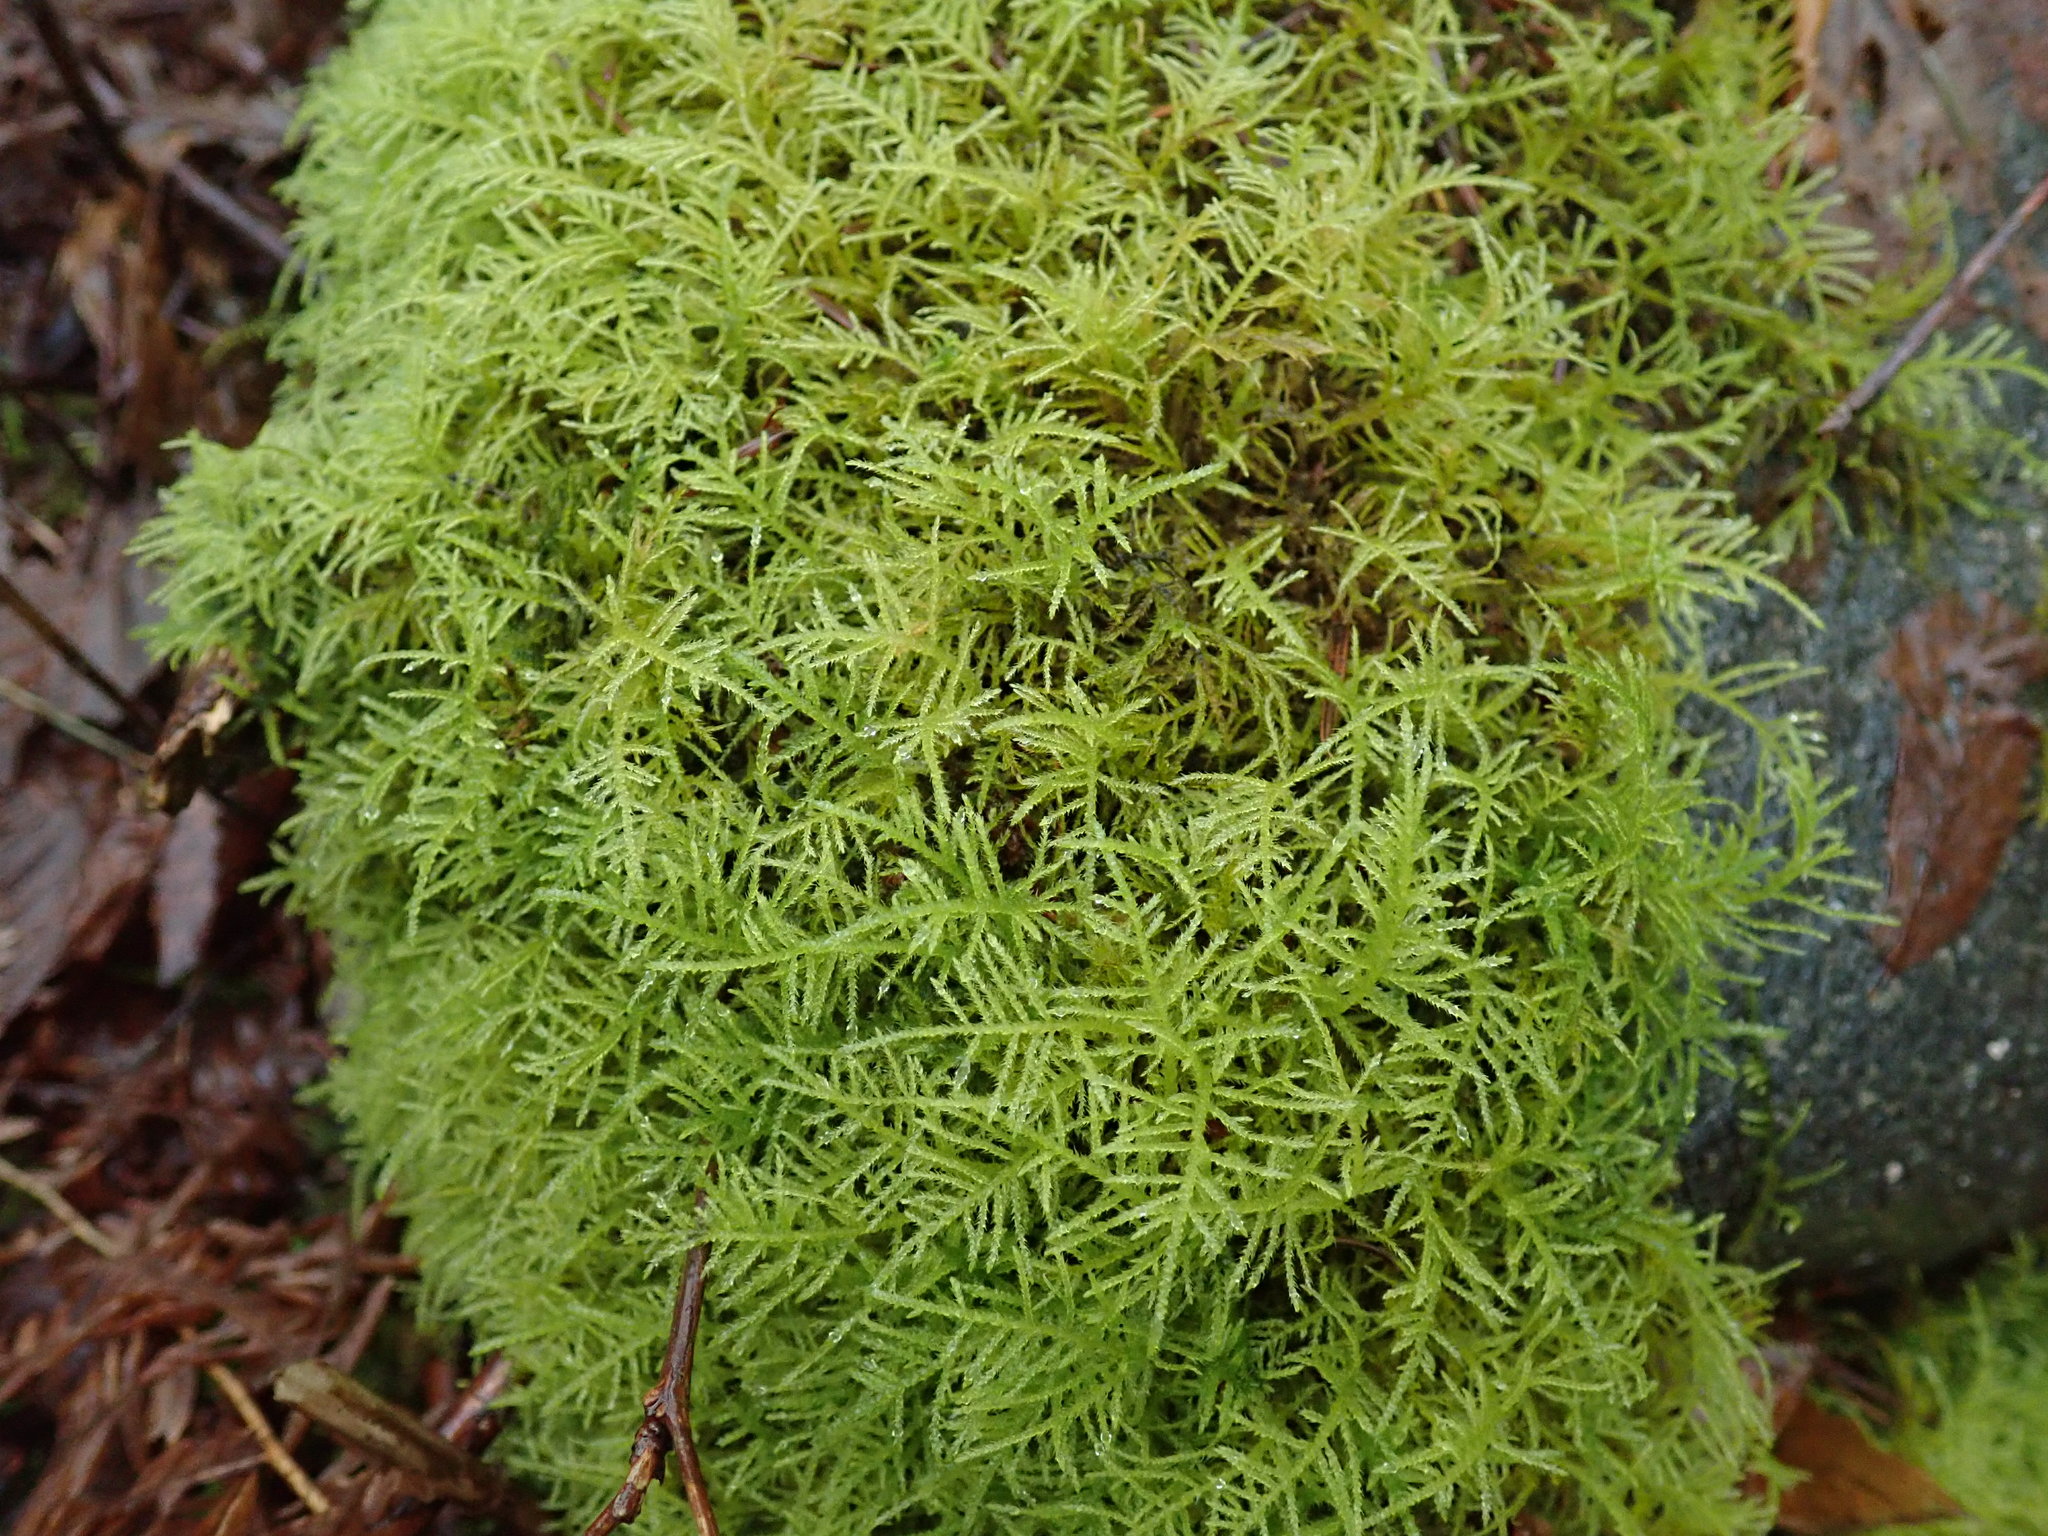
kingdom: Plantae
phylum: Bryophyta
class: Bryopsida
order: Hypnales
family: Brachytheciaceae
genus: Kindbergia
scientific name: Kindbergia praelonga
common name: Slender beaked moss
